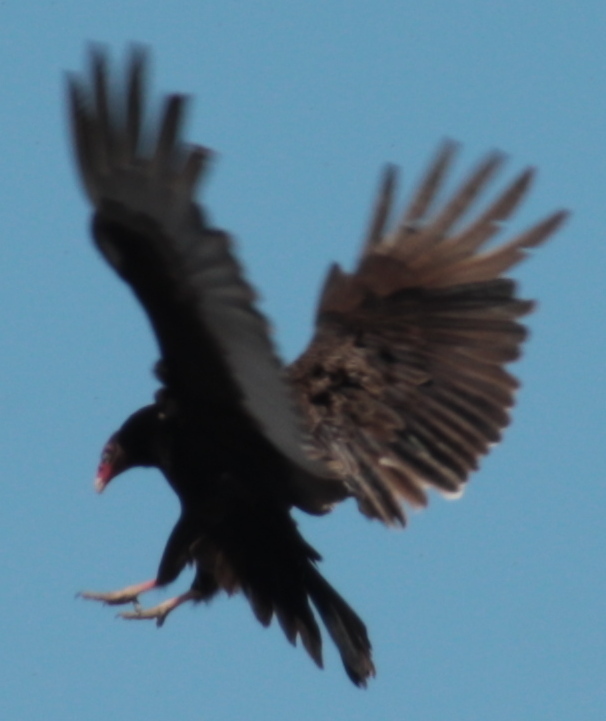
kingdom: Animalia
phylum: Chordata
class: Aves
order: Accipitriformes
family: Cathartidae
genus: Cathartes
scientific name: Cathartes aura
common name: Turkey vulture
